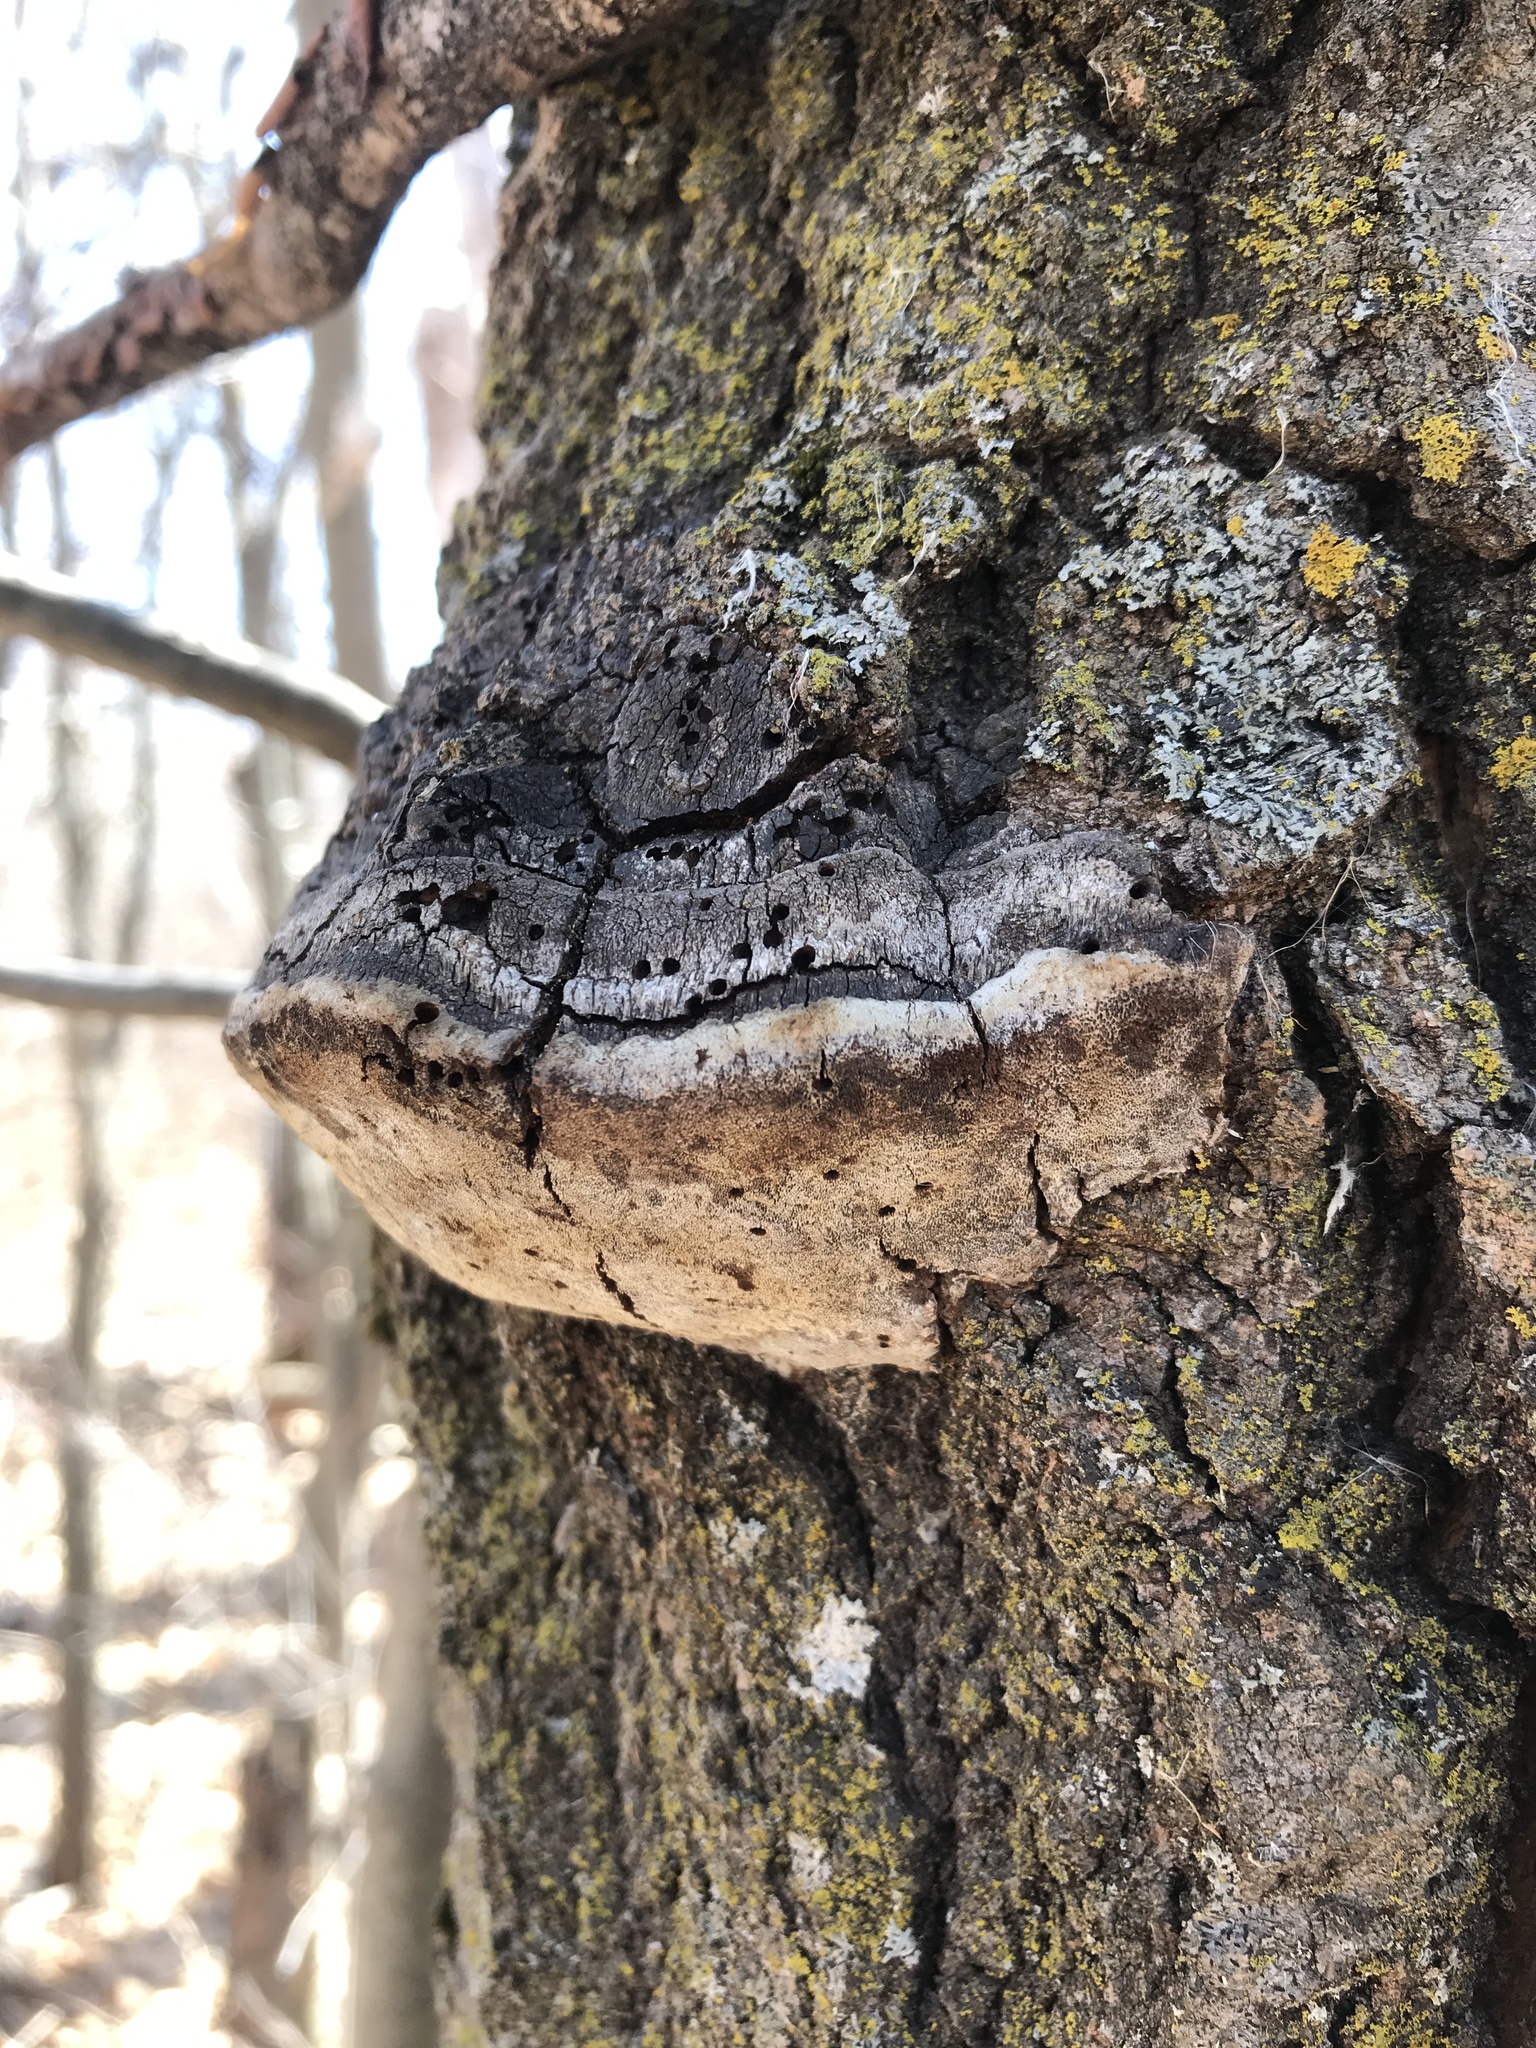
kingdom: Fungi
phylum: Basidiomycota
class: Agaricomycetes
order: Hymenochaetales
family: Hymenochaetaceae
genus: Phellinus
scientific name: Phellinus tremulae
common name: Aspen bracket
